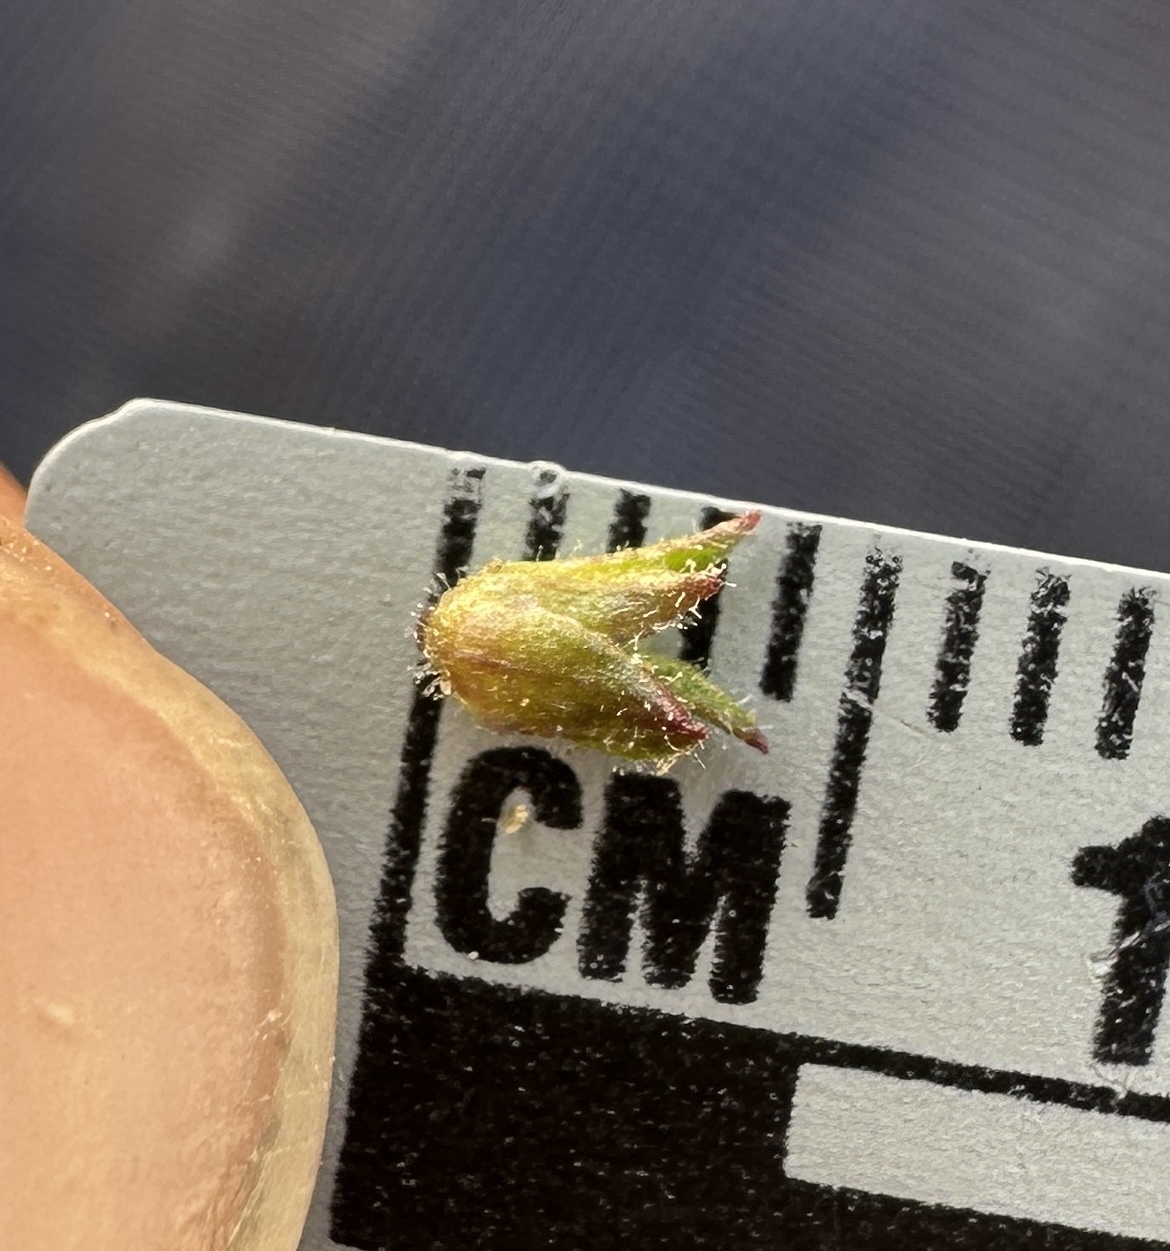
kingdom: Plantae
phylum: Tracheophyta
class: Magnoliopsida
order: Lamiales
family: Plantaginaceae
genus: Penstemon
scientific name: Penstemon humilis
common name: Low penstemon
